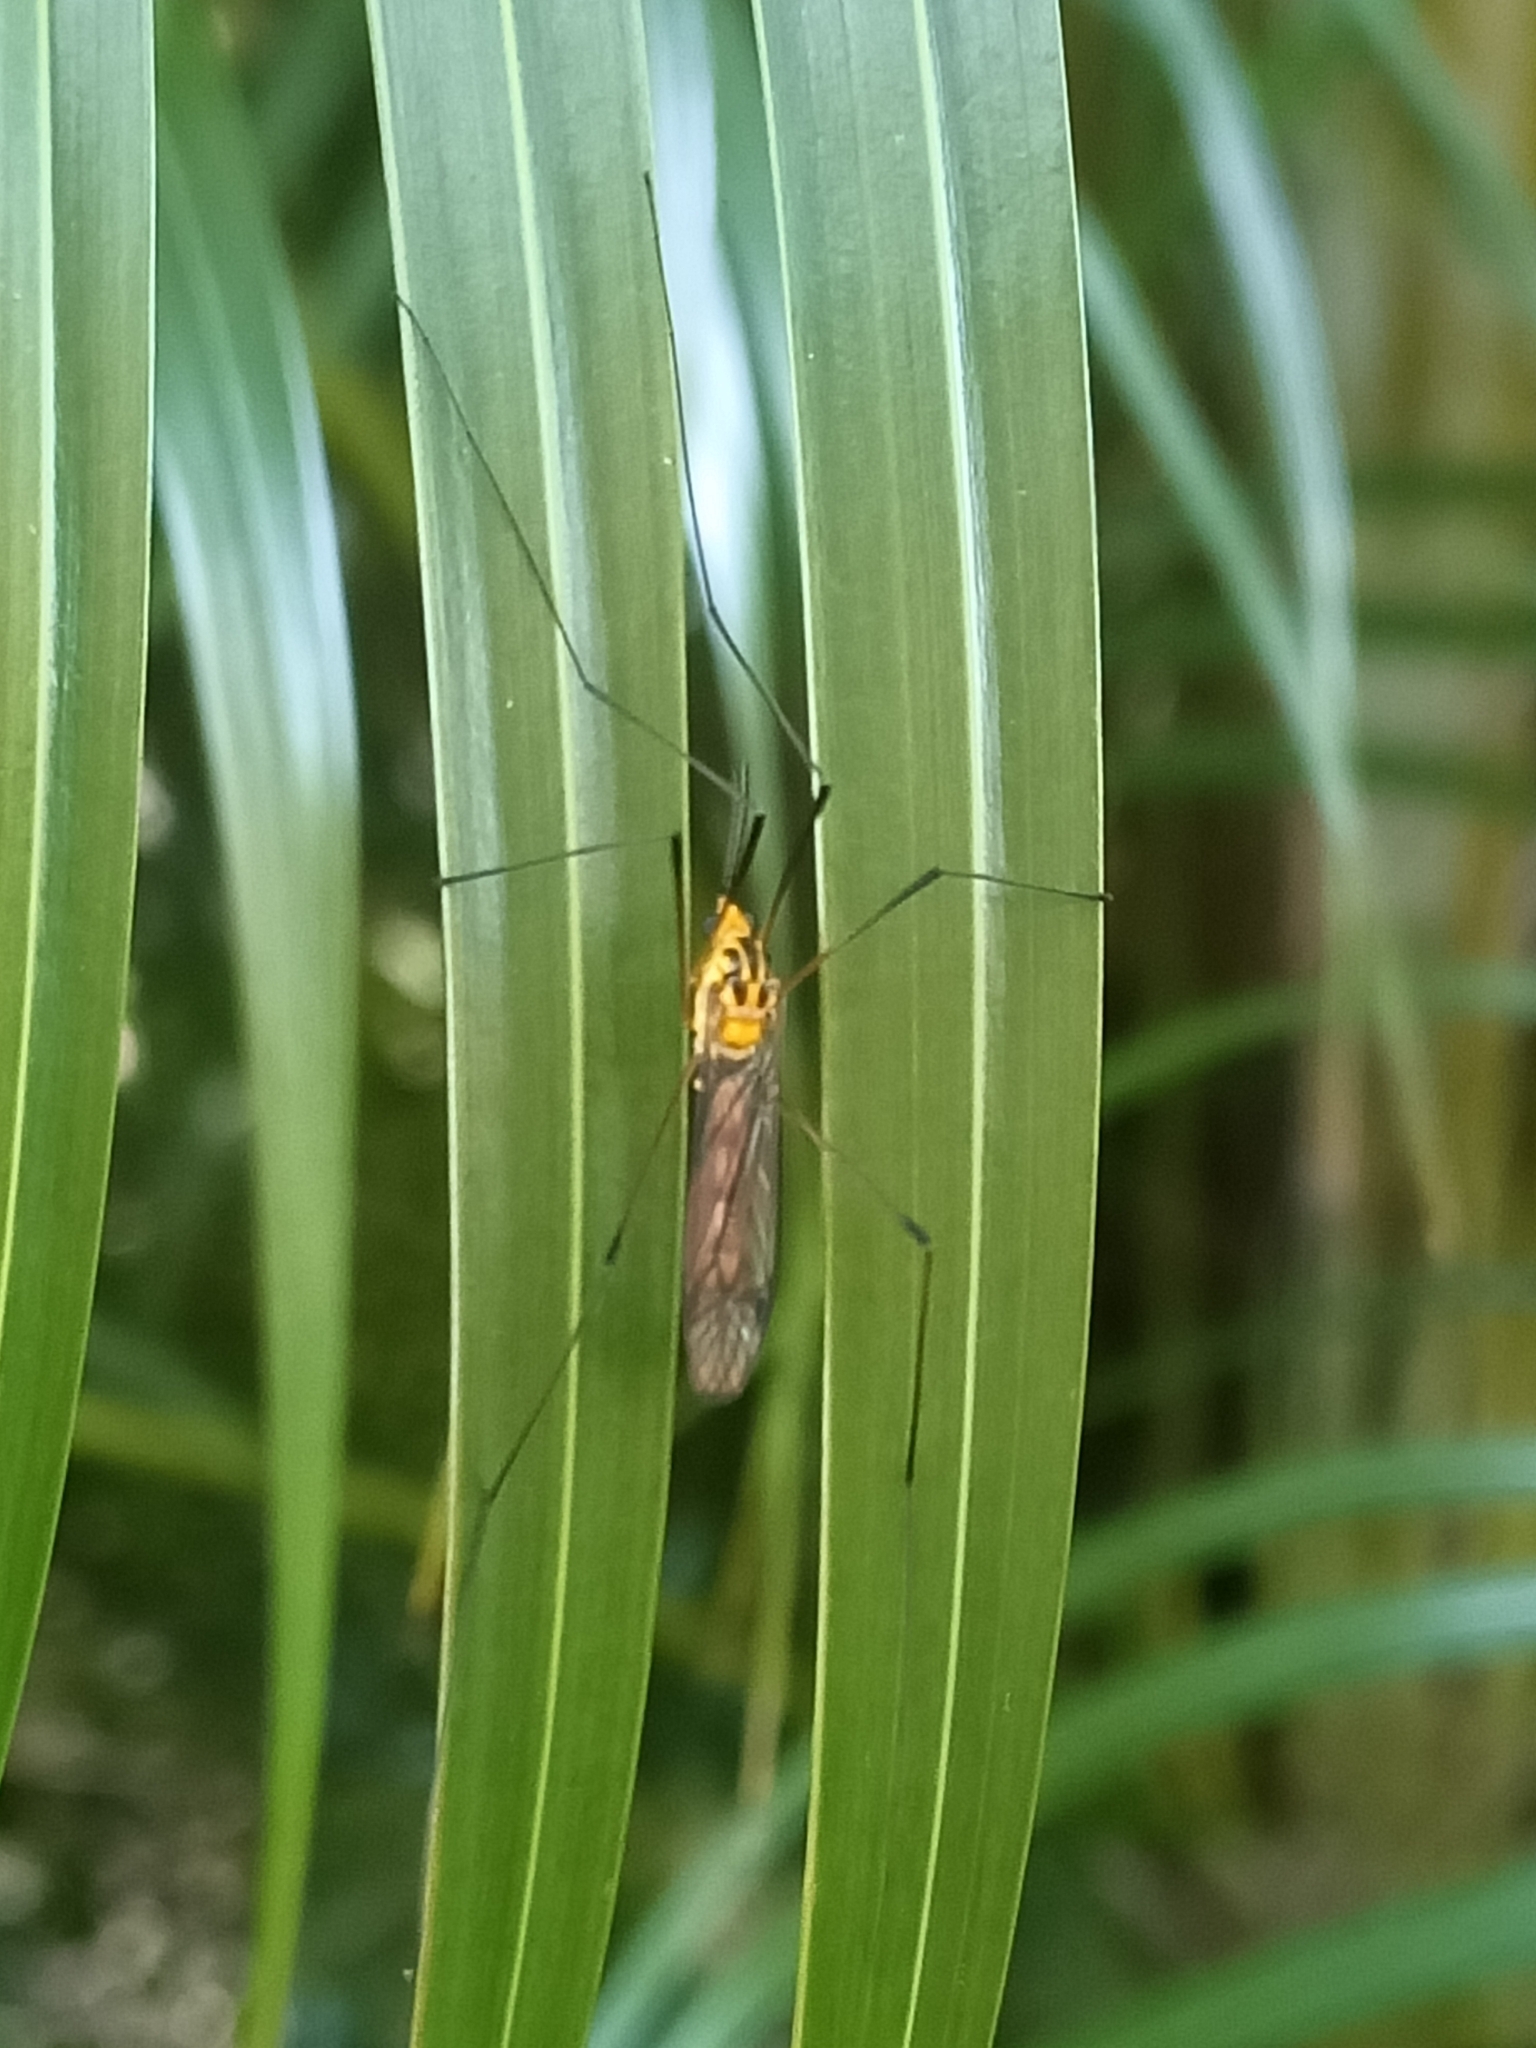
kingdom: Animalia
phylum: Arthropoda
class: Insecta
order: Diptera
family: Tipulidae
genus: Nephrotoma
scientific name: Nephrotoma australasiae
